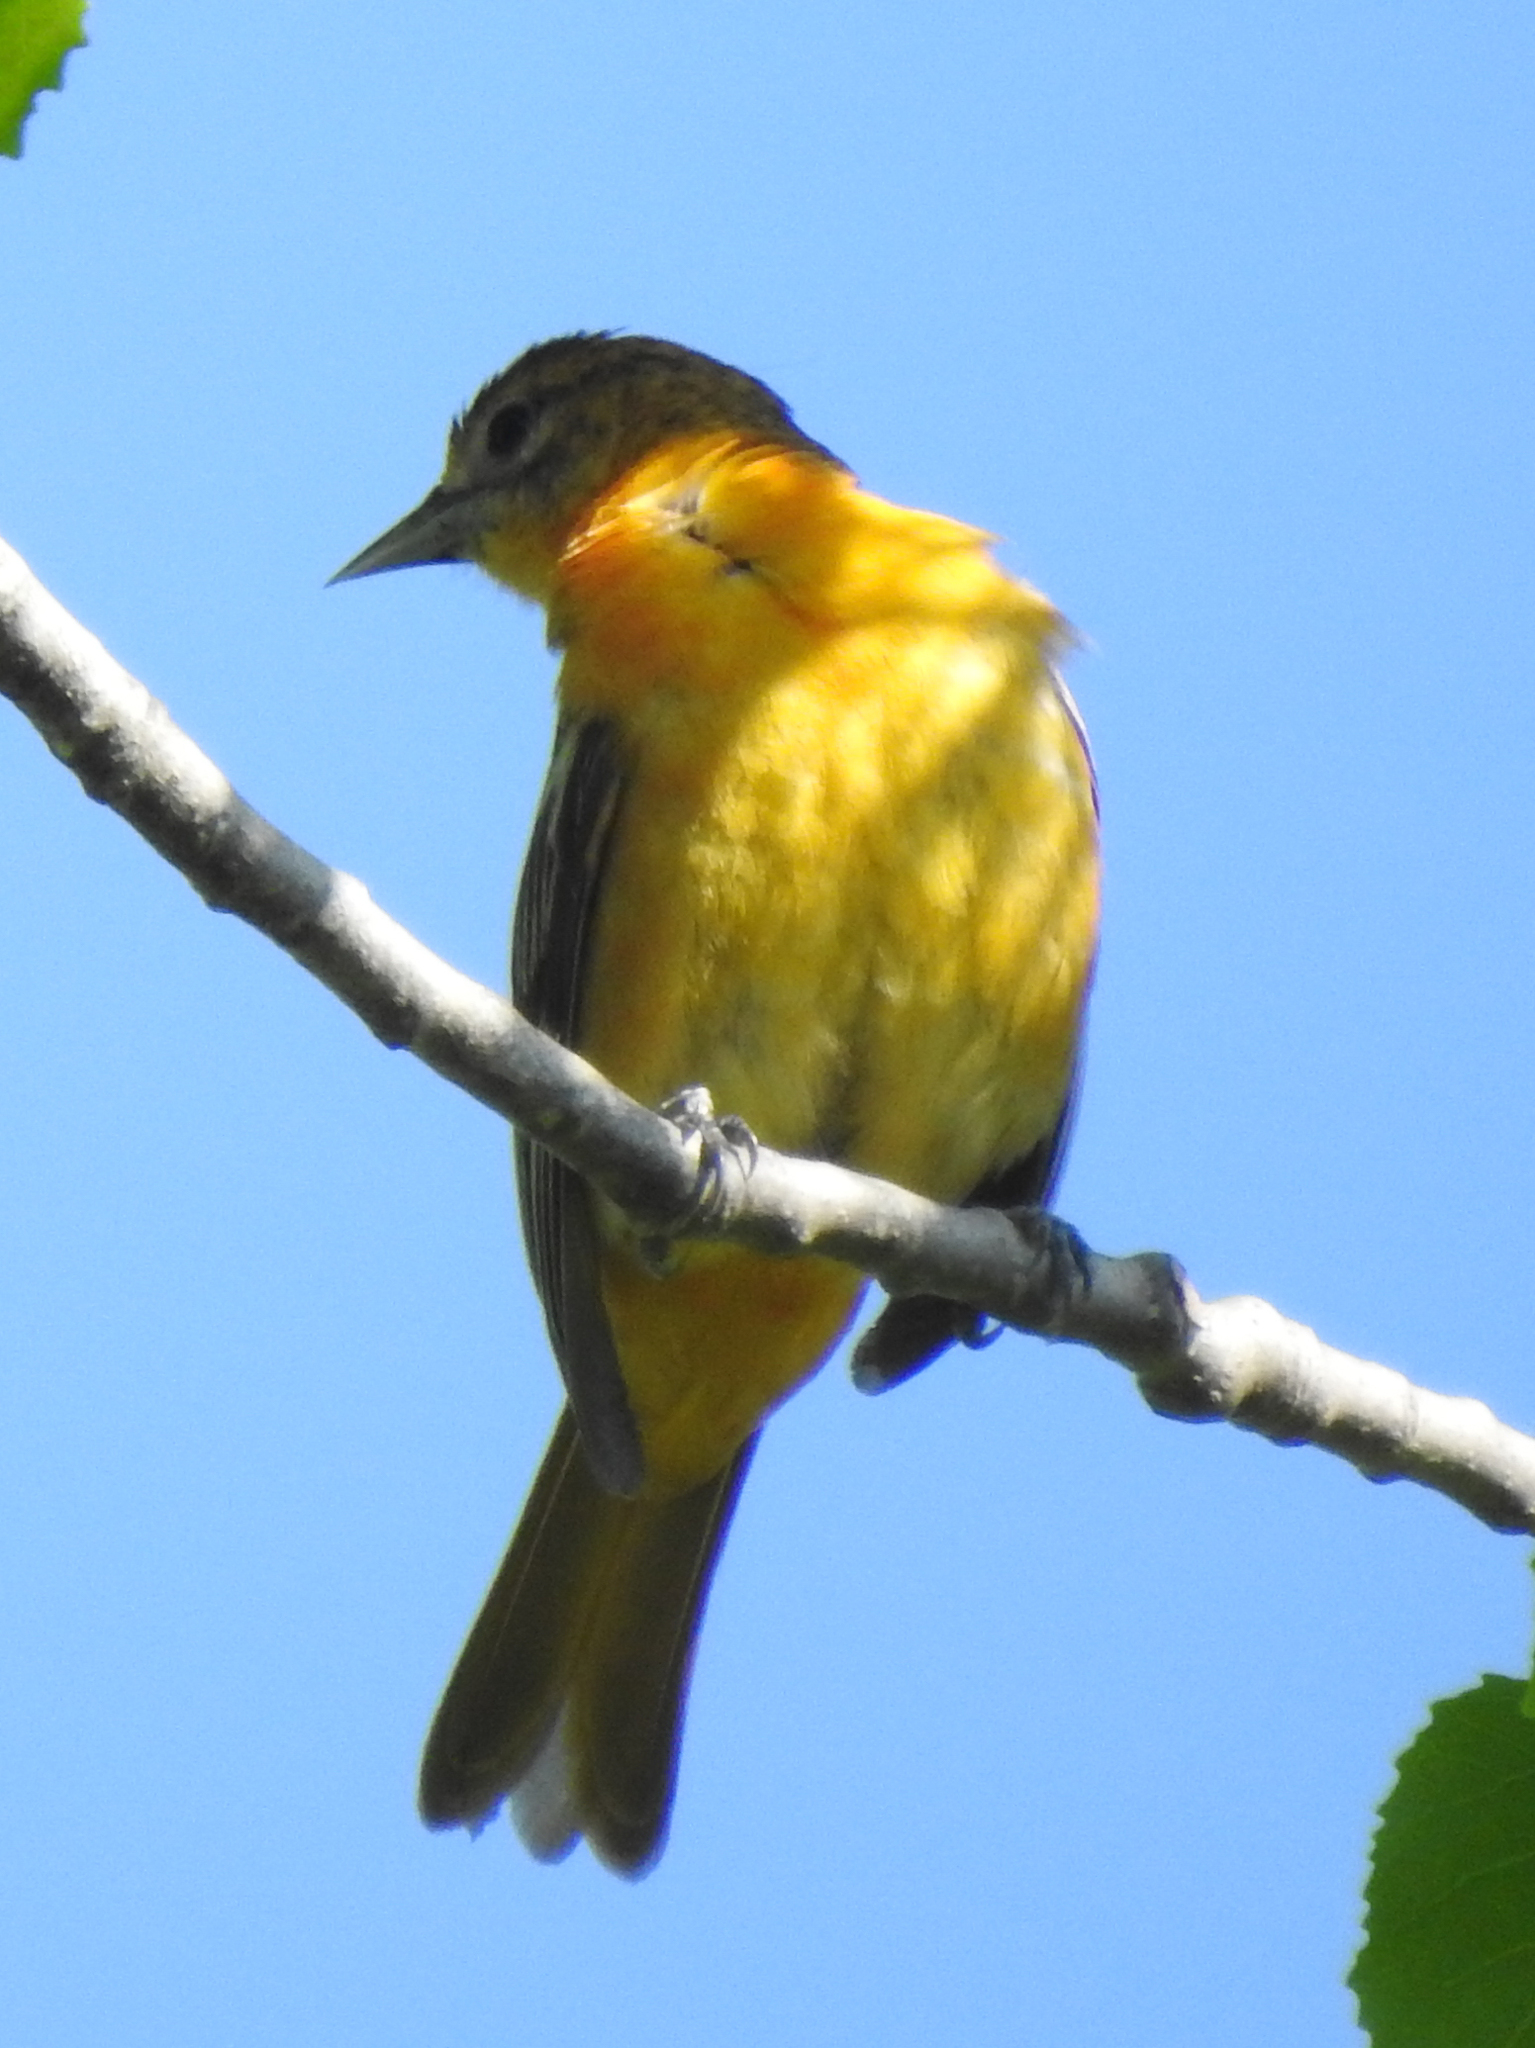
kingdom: Animalia
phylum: Chordata
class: Aves
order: Passeriformes
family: Icteridae
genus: Icterus
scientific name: Icterus galbula
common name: Baltimore oriole
